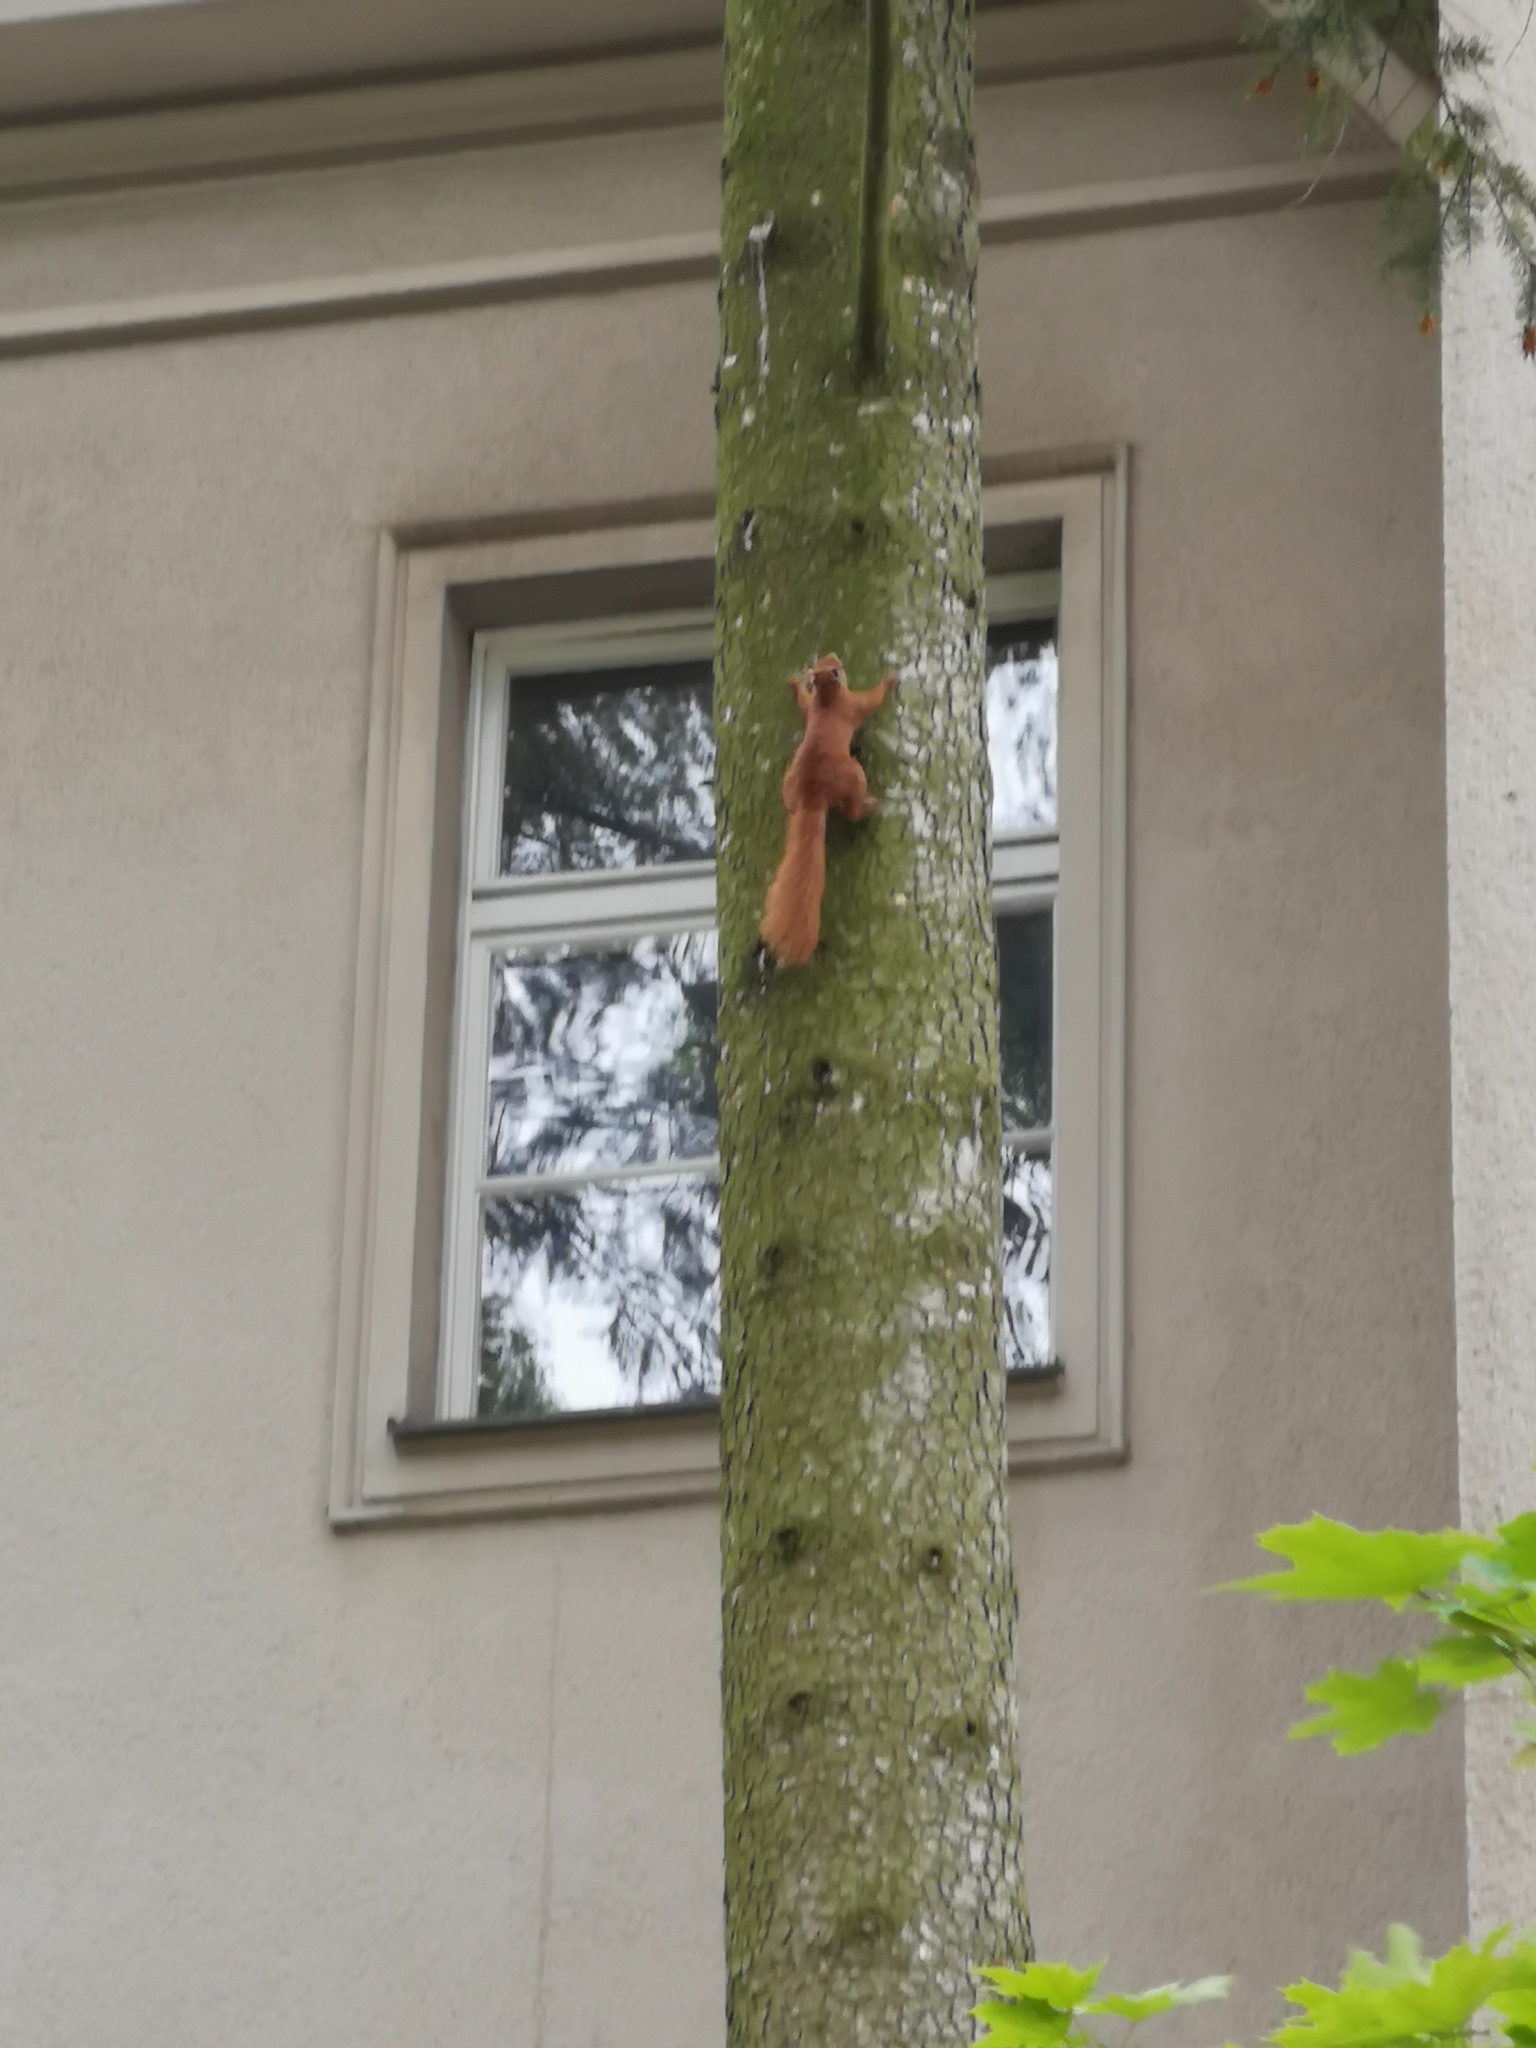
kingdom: Animalia
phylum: Chordata
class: Mammalia
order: Rodentia
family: Sciuridae
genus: Sciurus
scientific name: Sciurus vulgaris
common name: Eurasian red squirrel
